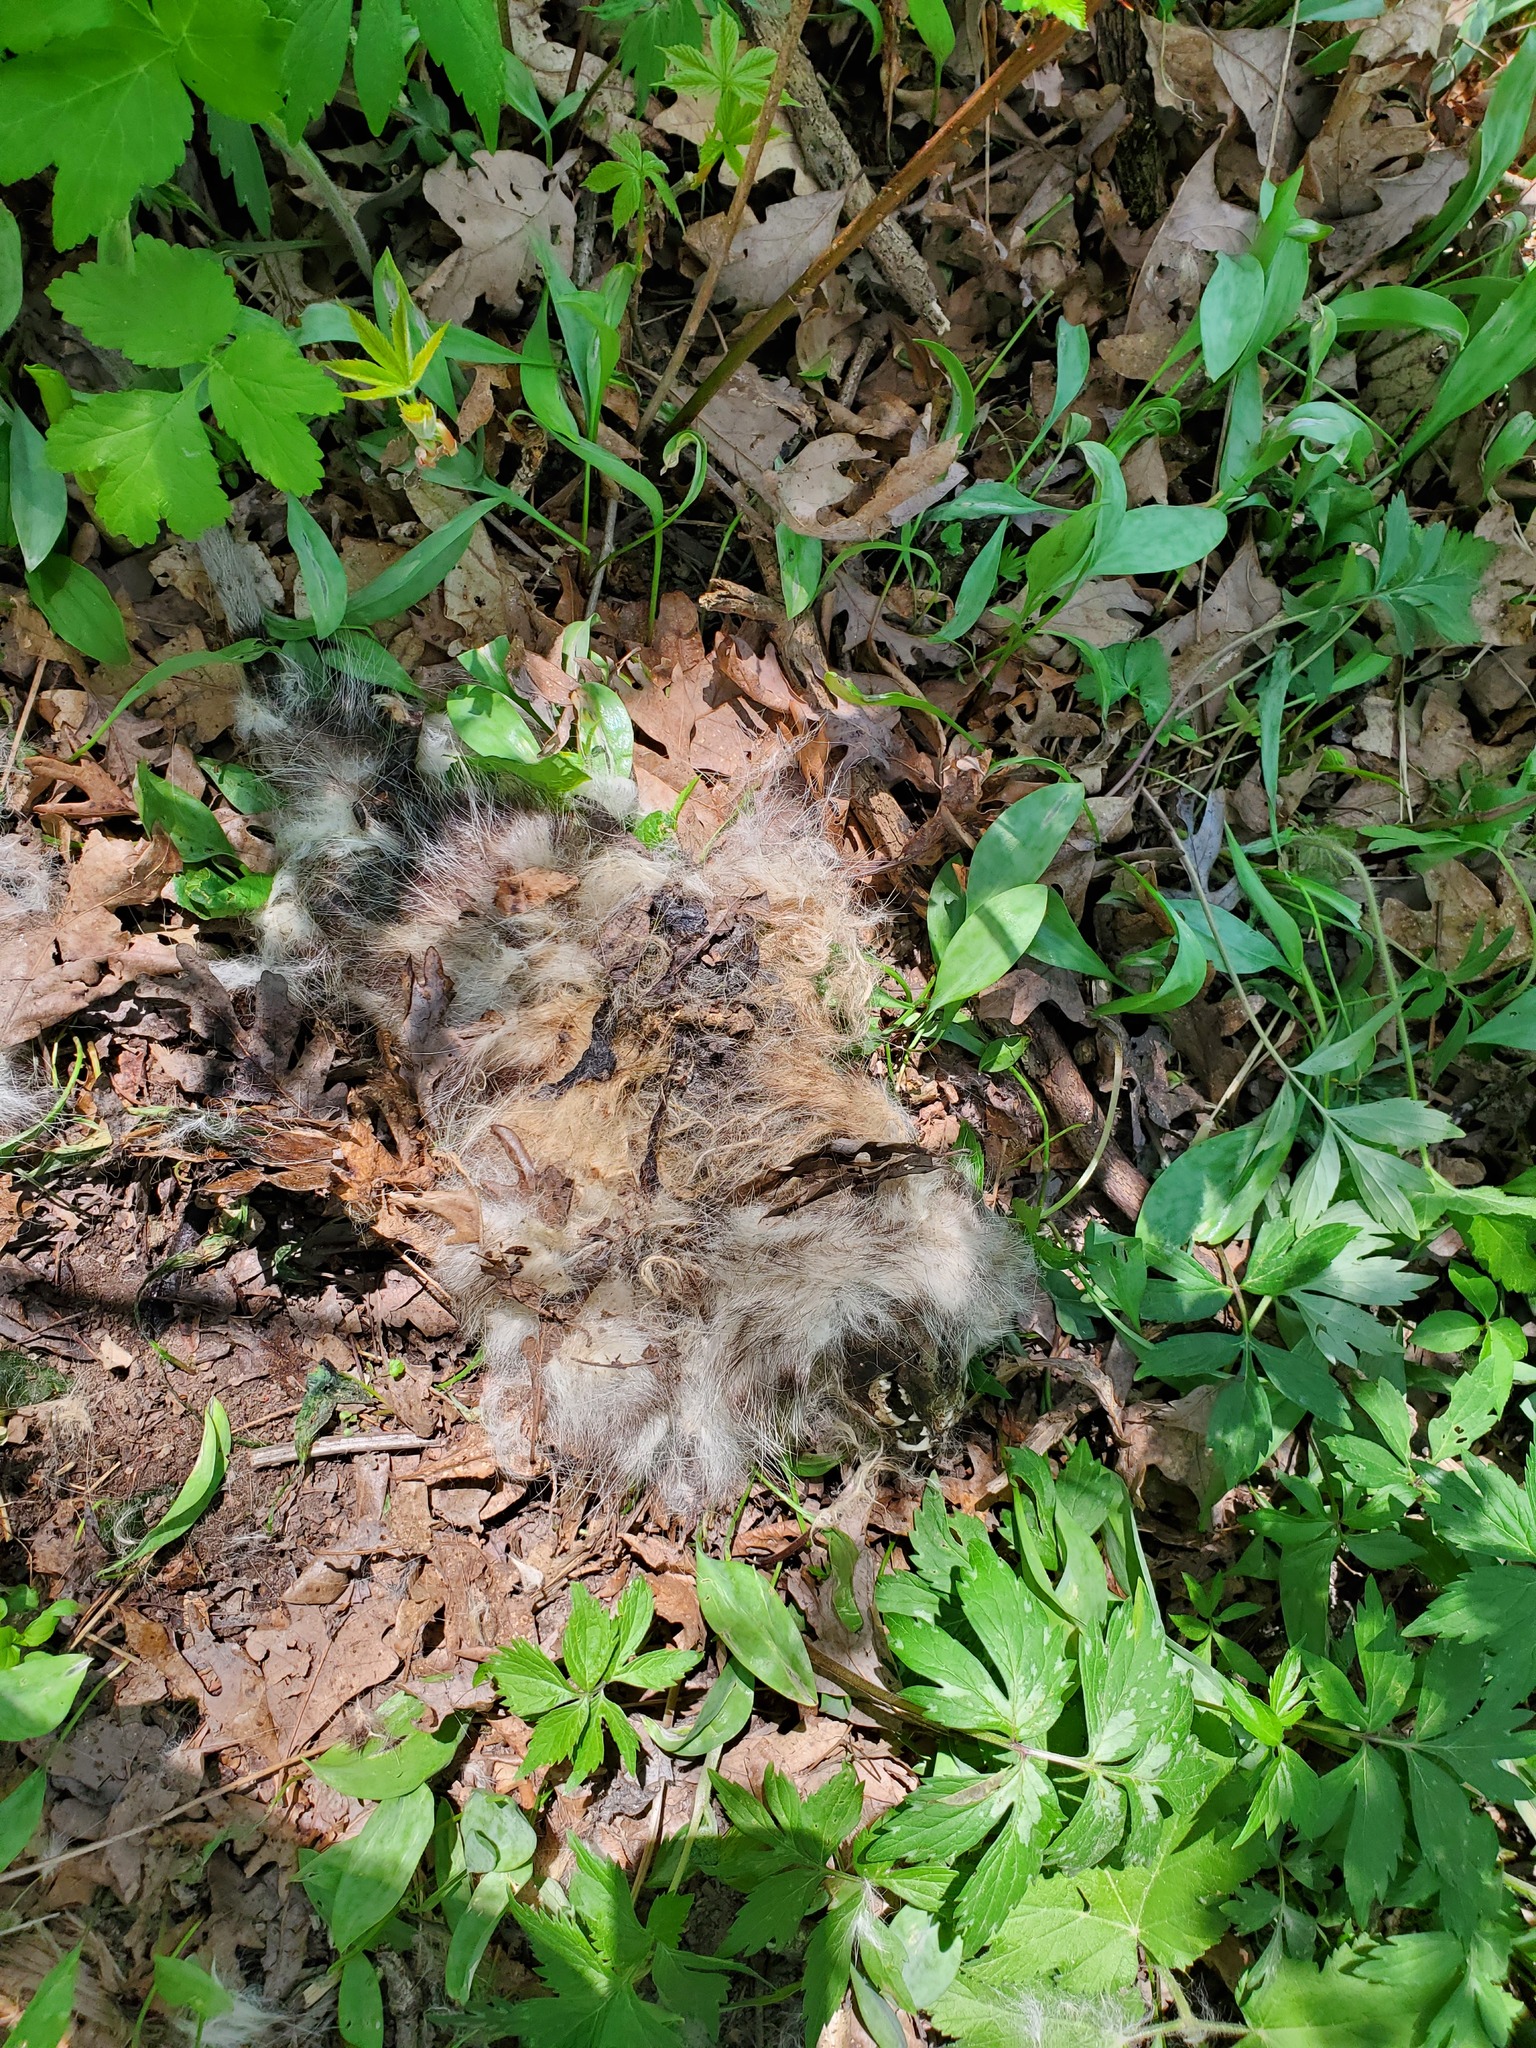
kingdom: Animalia
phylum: Chordata
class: Mammalia
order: Didelphimorphia
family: Didelphidae
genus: Didelphis
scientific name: Didelphis virginiana
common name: Virginia opossum
